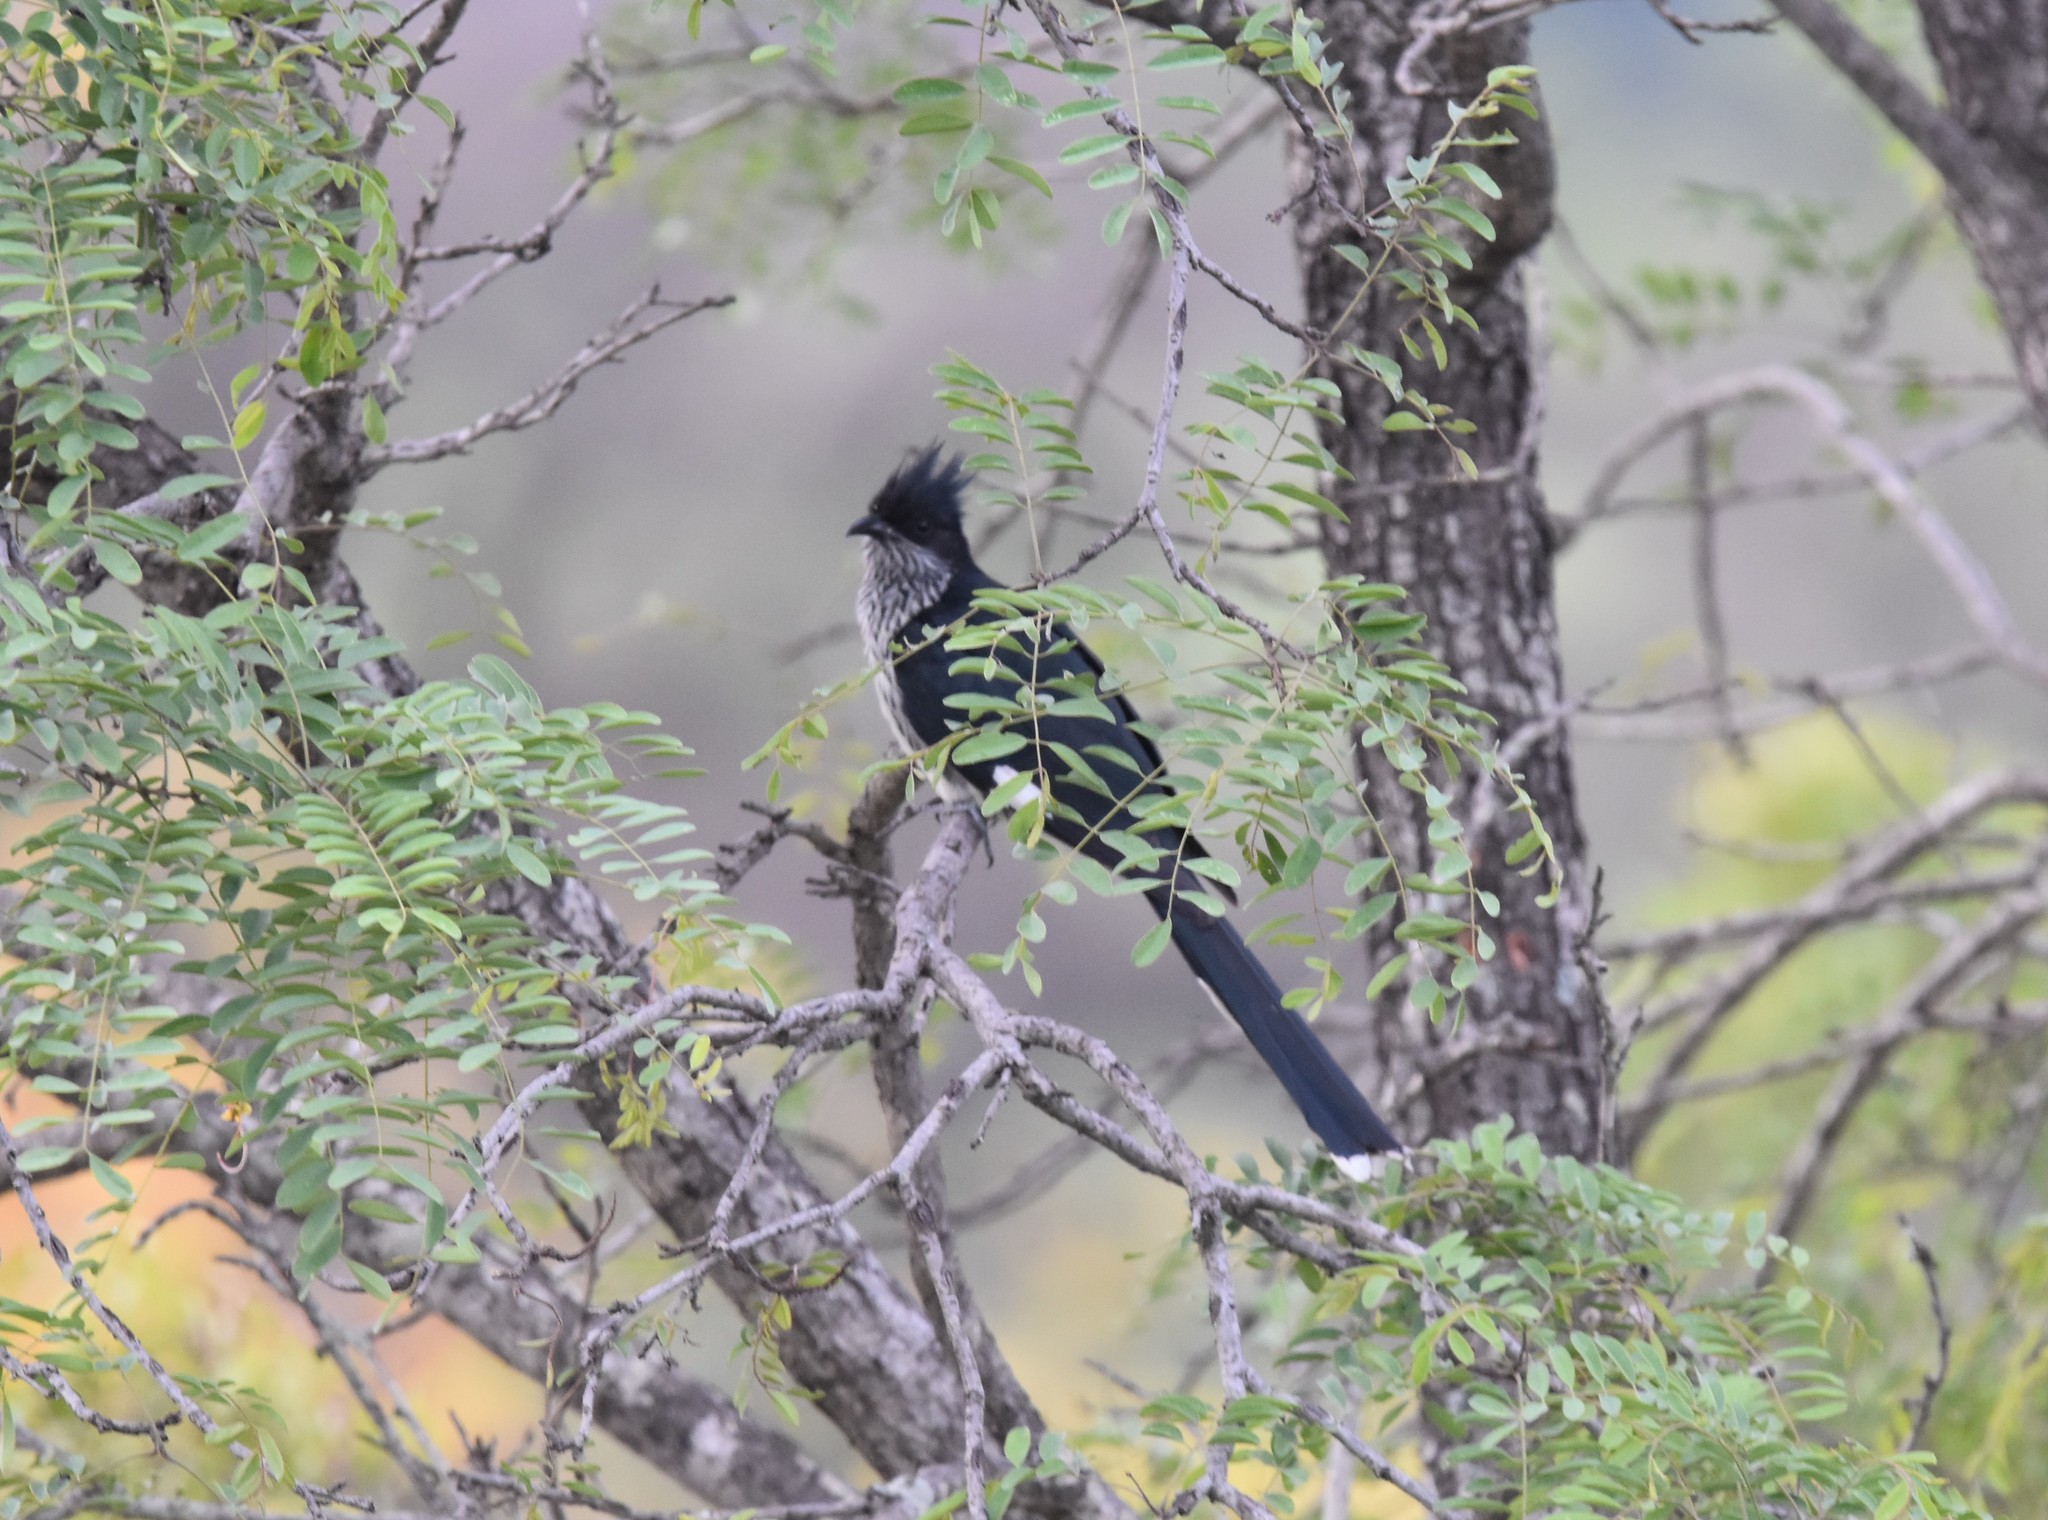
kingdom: Animalia
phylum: Chordata
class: Aves
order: Cuculiformes
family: Cuculidae
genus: Clamator
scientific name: Clamator levaillantii
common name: Levaillant's cuckoo
